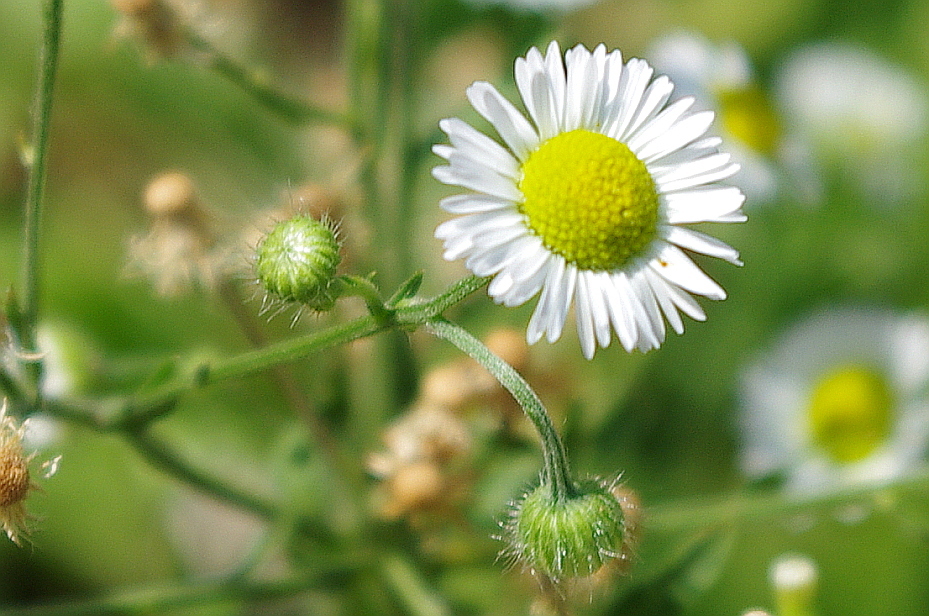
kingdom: Plantae
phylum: Tracheophyta
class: Magnoliopsida
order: Asterales
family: Asteraceae
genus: Erigeron
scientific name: Erigeron annuus
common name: Tall fleabane
